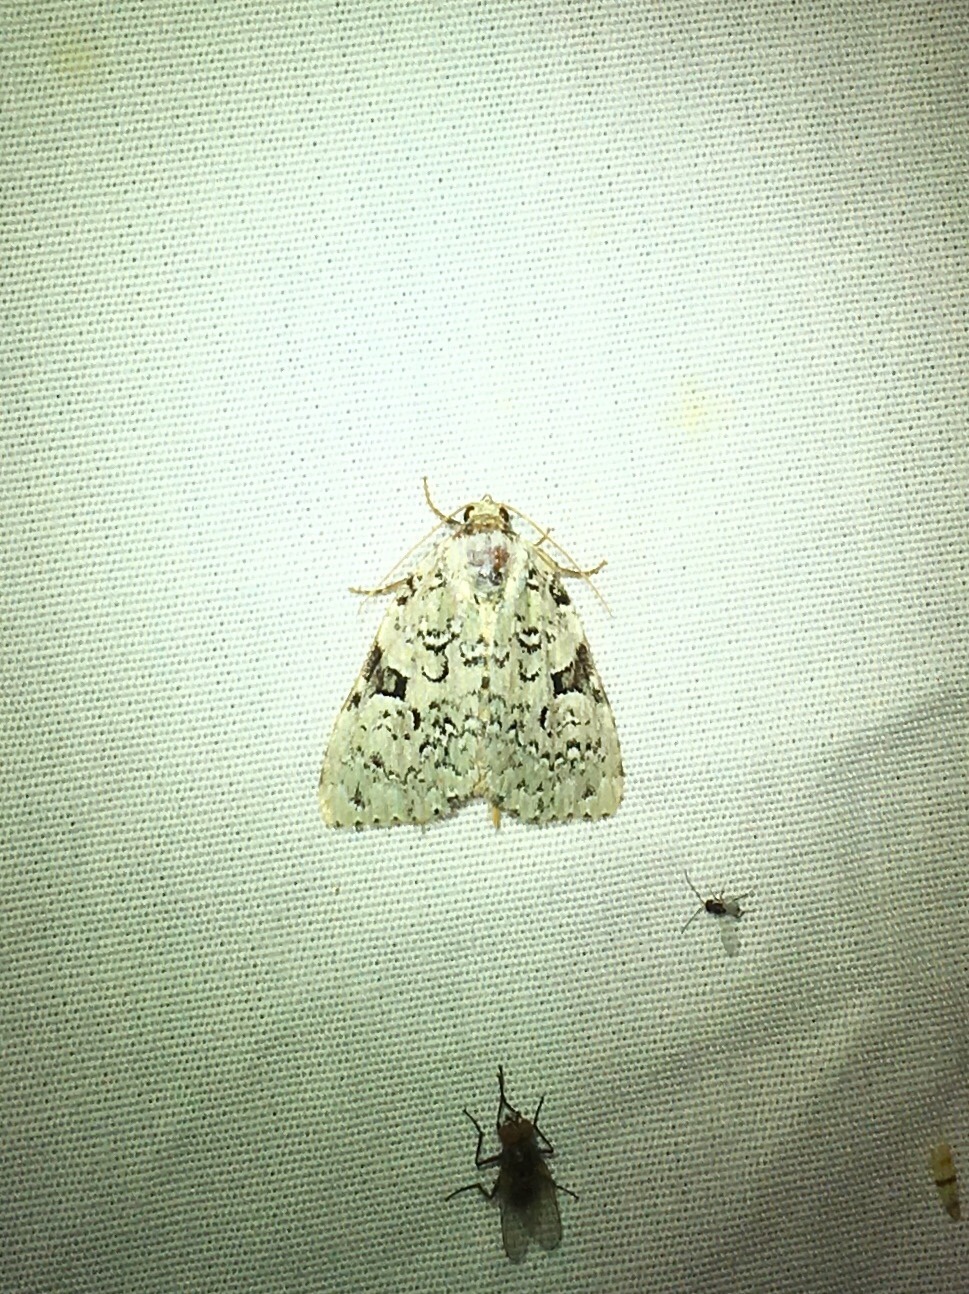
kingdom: Animalia
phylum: Arthropoda
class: Insecta
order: Lepidoptera
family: Noctuidae
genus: Leuconycta
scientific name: Leuconycta diphteroides
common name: Green leuconycta moth
